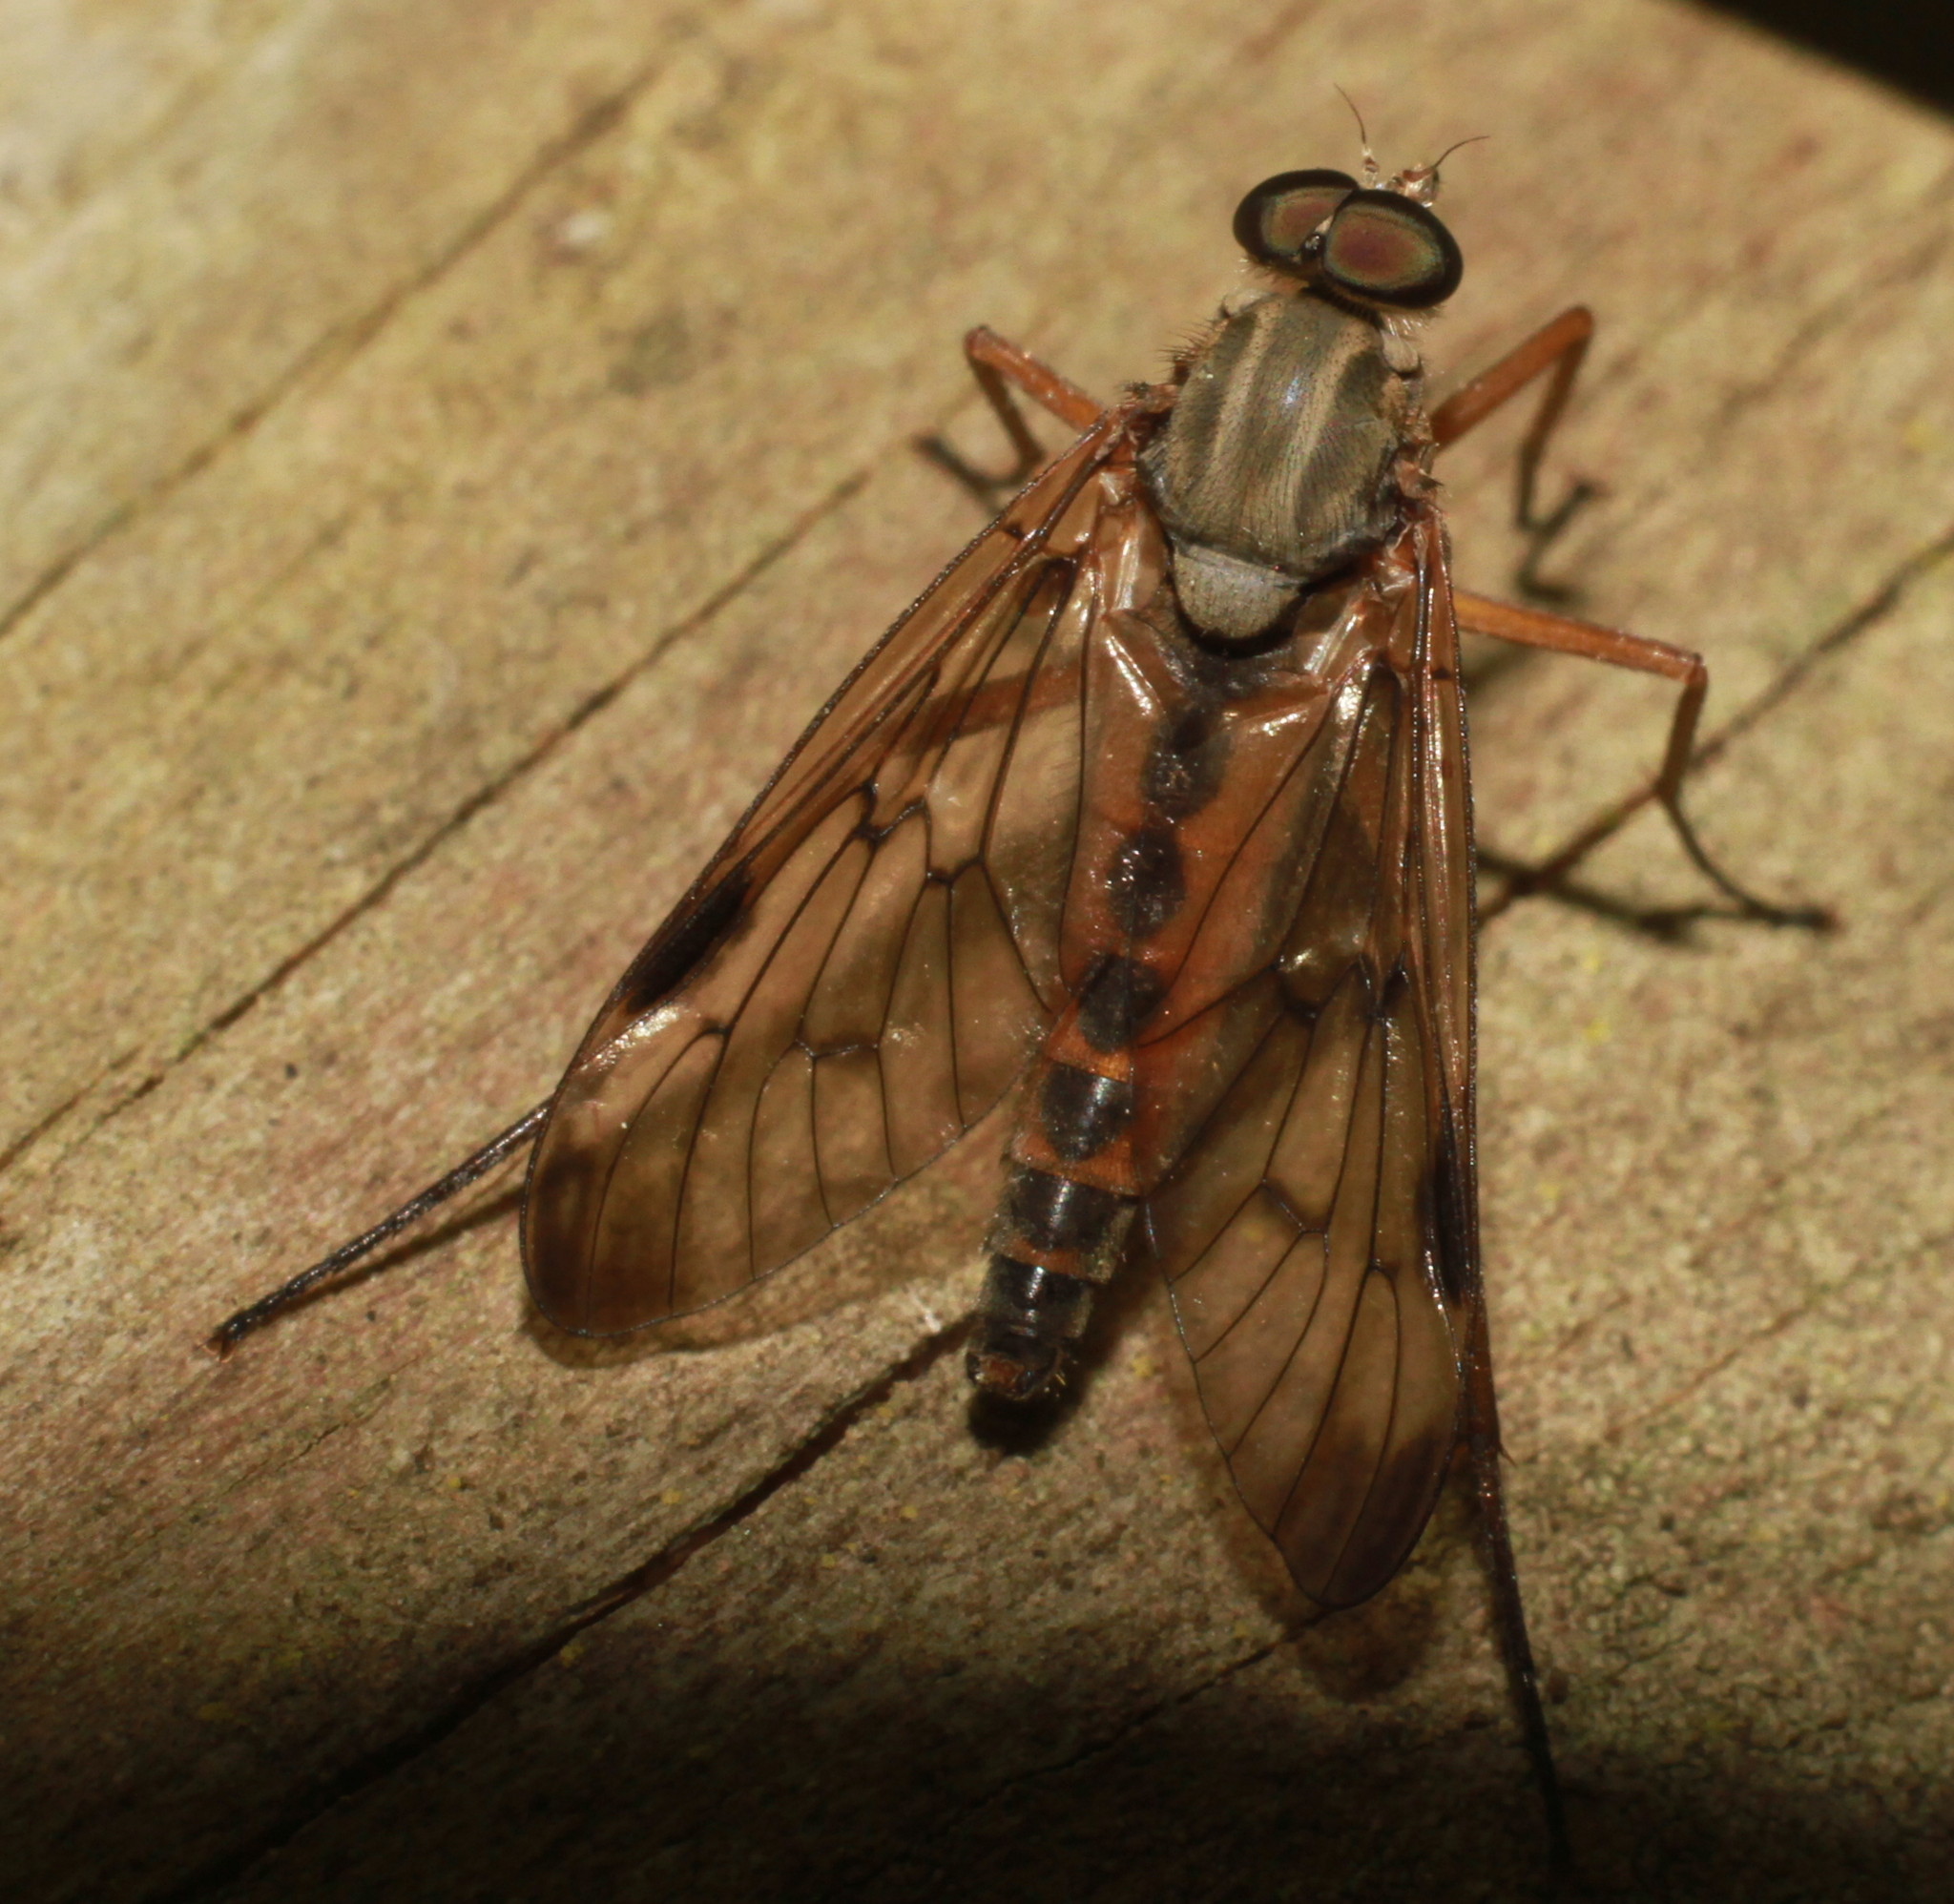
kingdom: Animalia
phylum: Arthropoda
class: Insecta
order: Diptera
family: Rhagionidae
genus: Rhagio
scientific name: Rhagio scolopacea
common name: Downlooker snipefly
